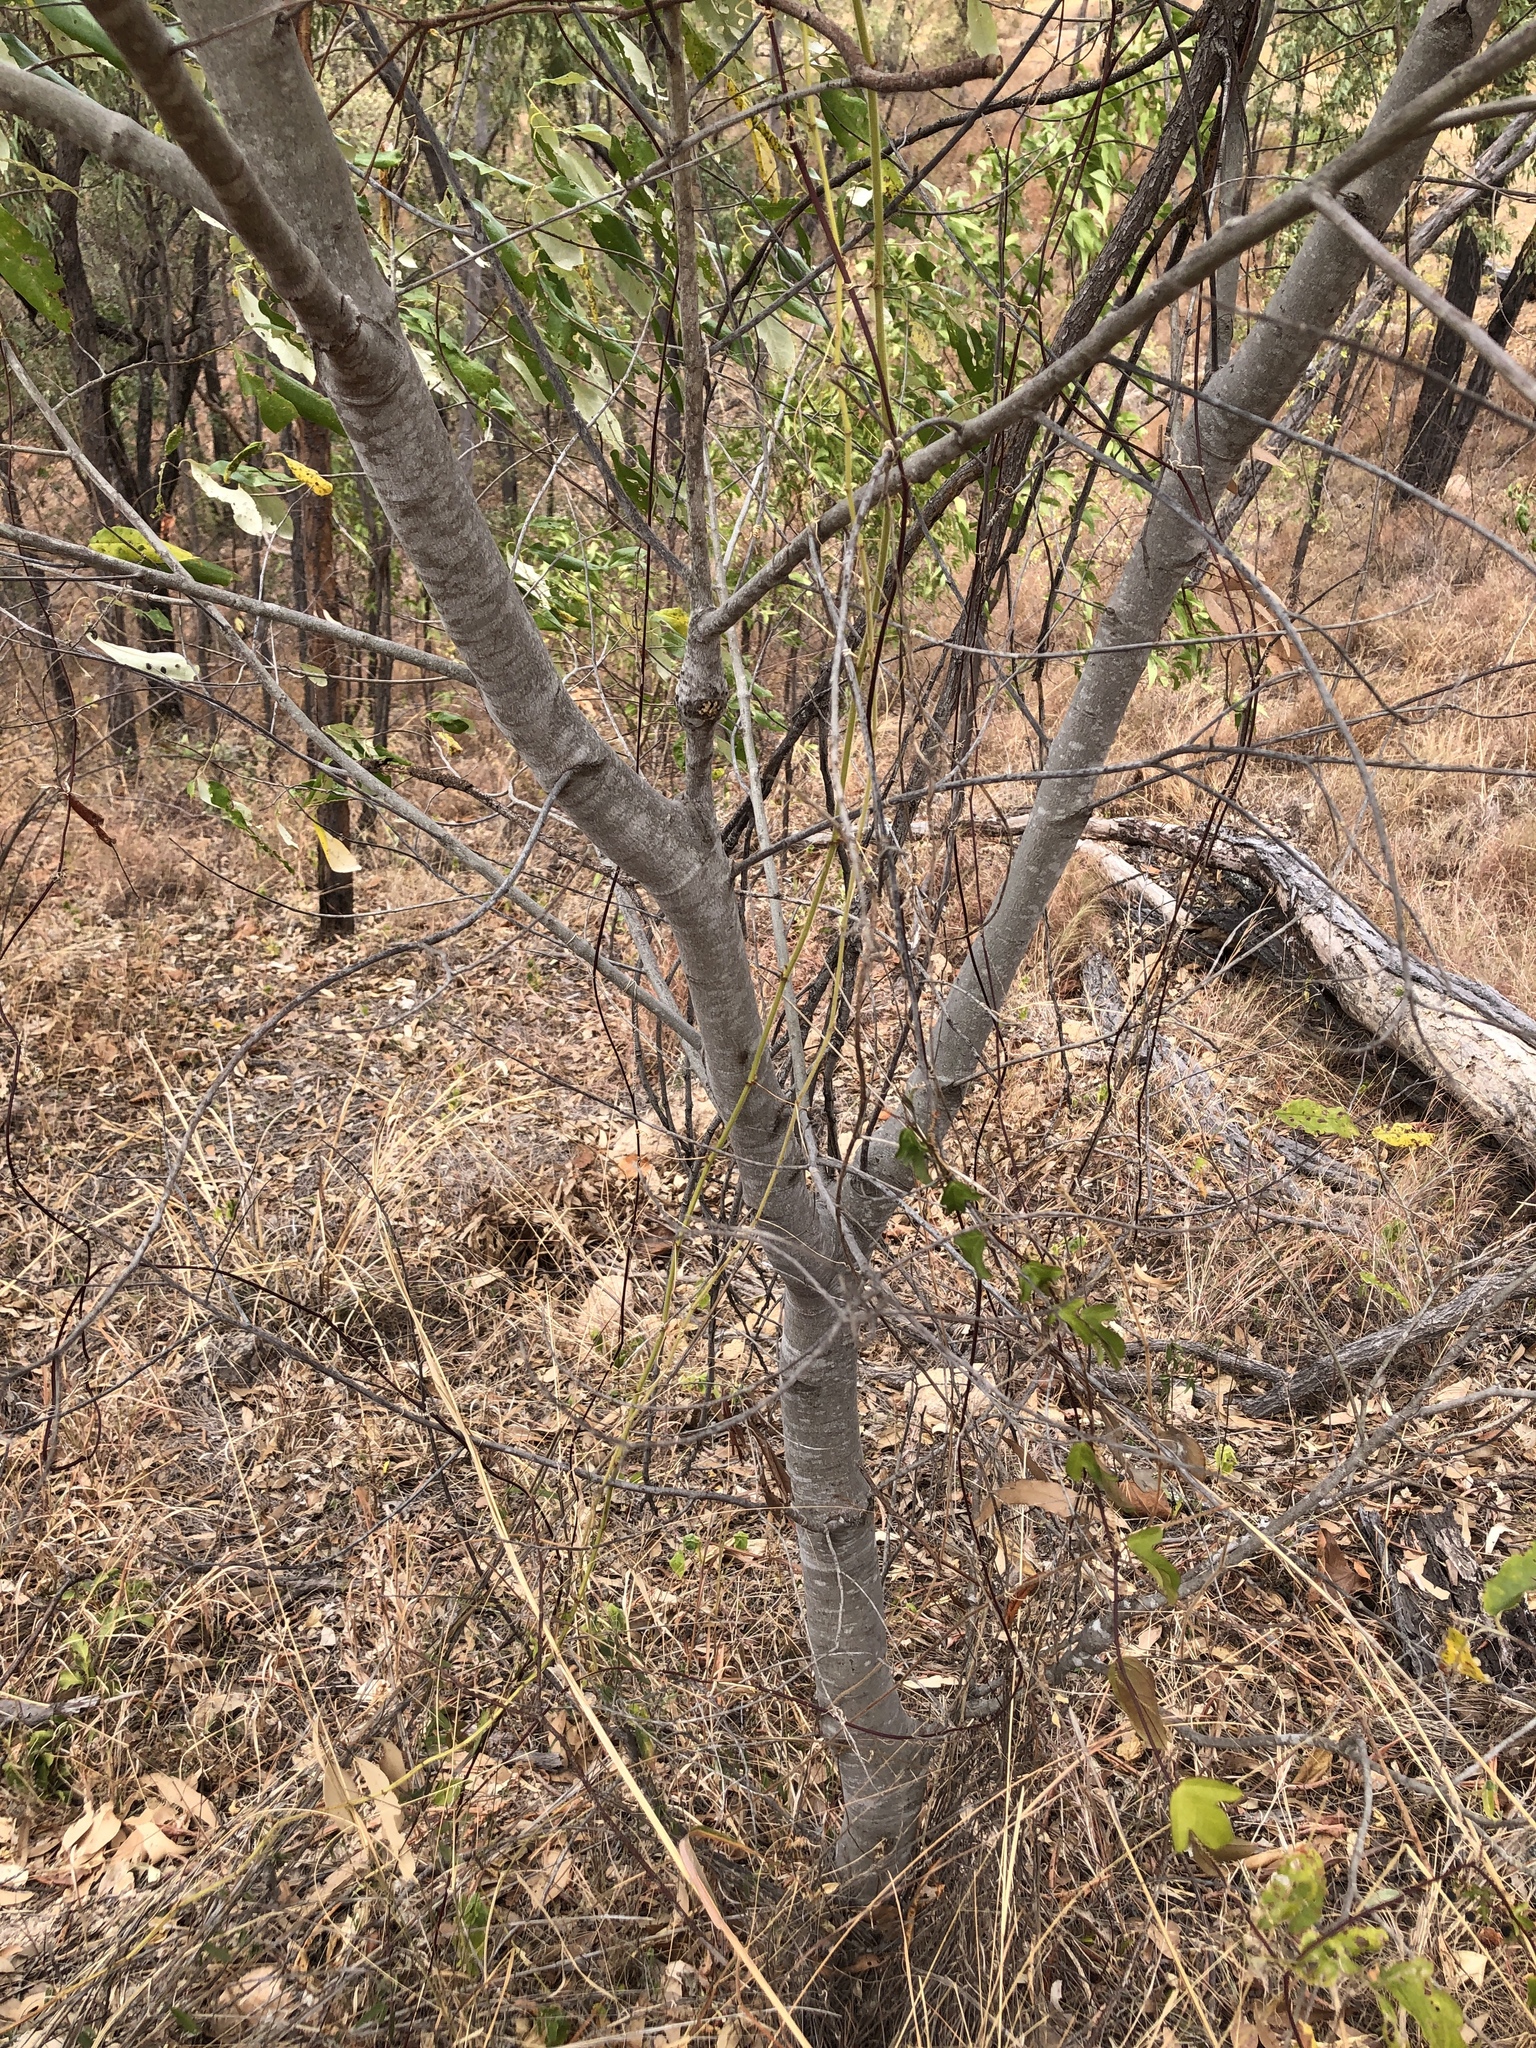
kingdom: Plantae
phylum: Tracheophyta
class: Magnoliopsida
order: Rosales
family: Rhamnaceae
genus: Alphitonia
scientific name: Alphitonia excelsa
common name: Red ash
